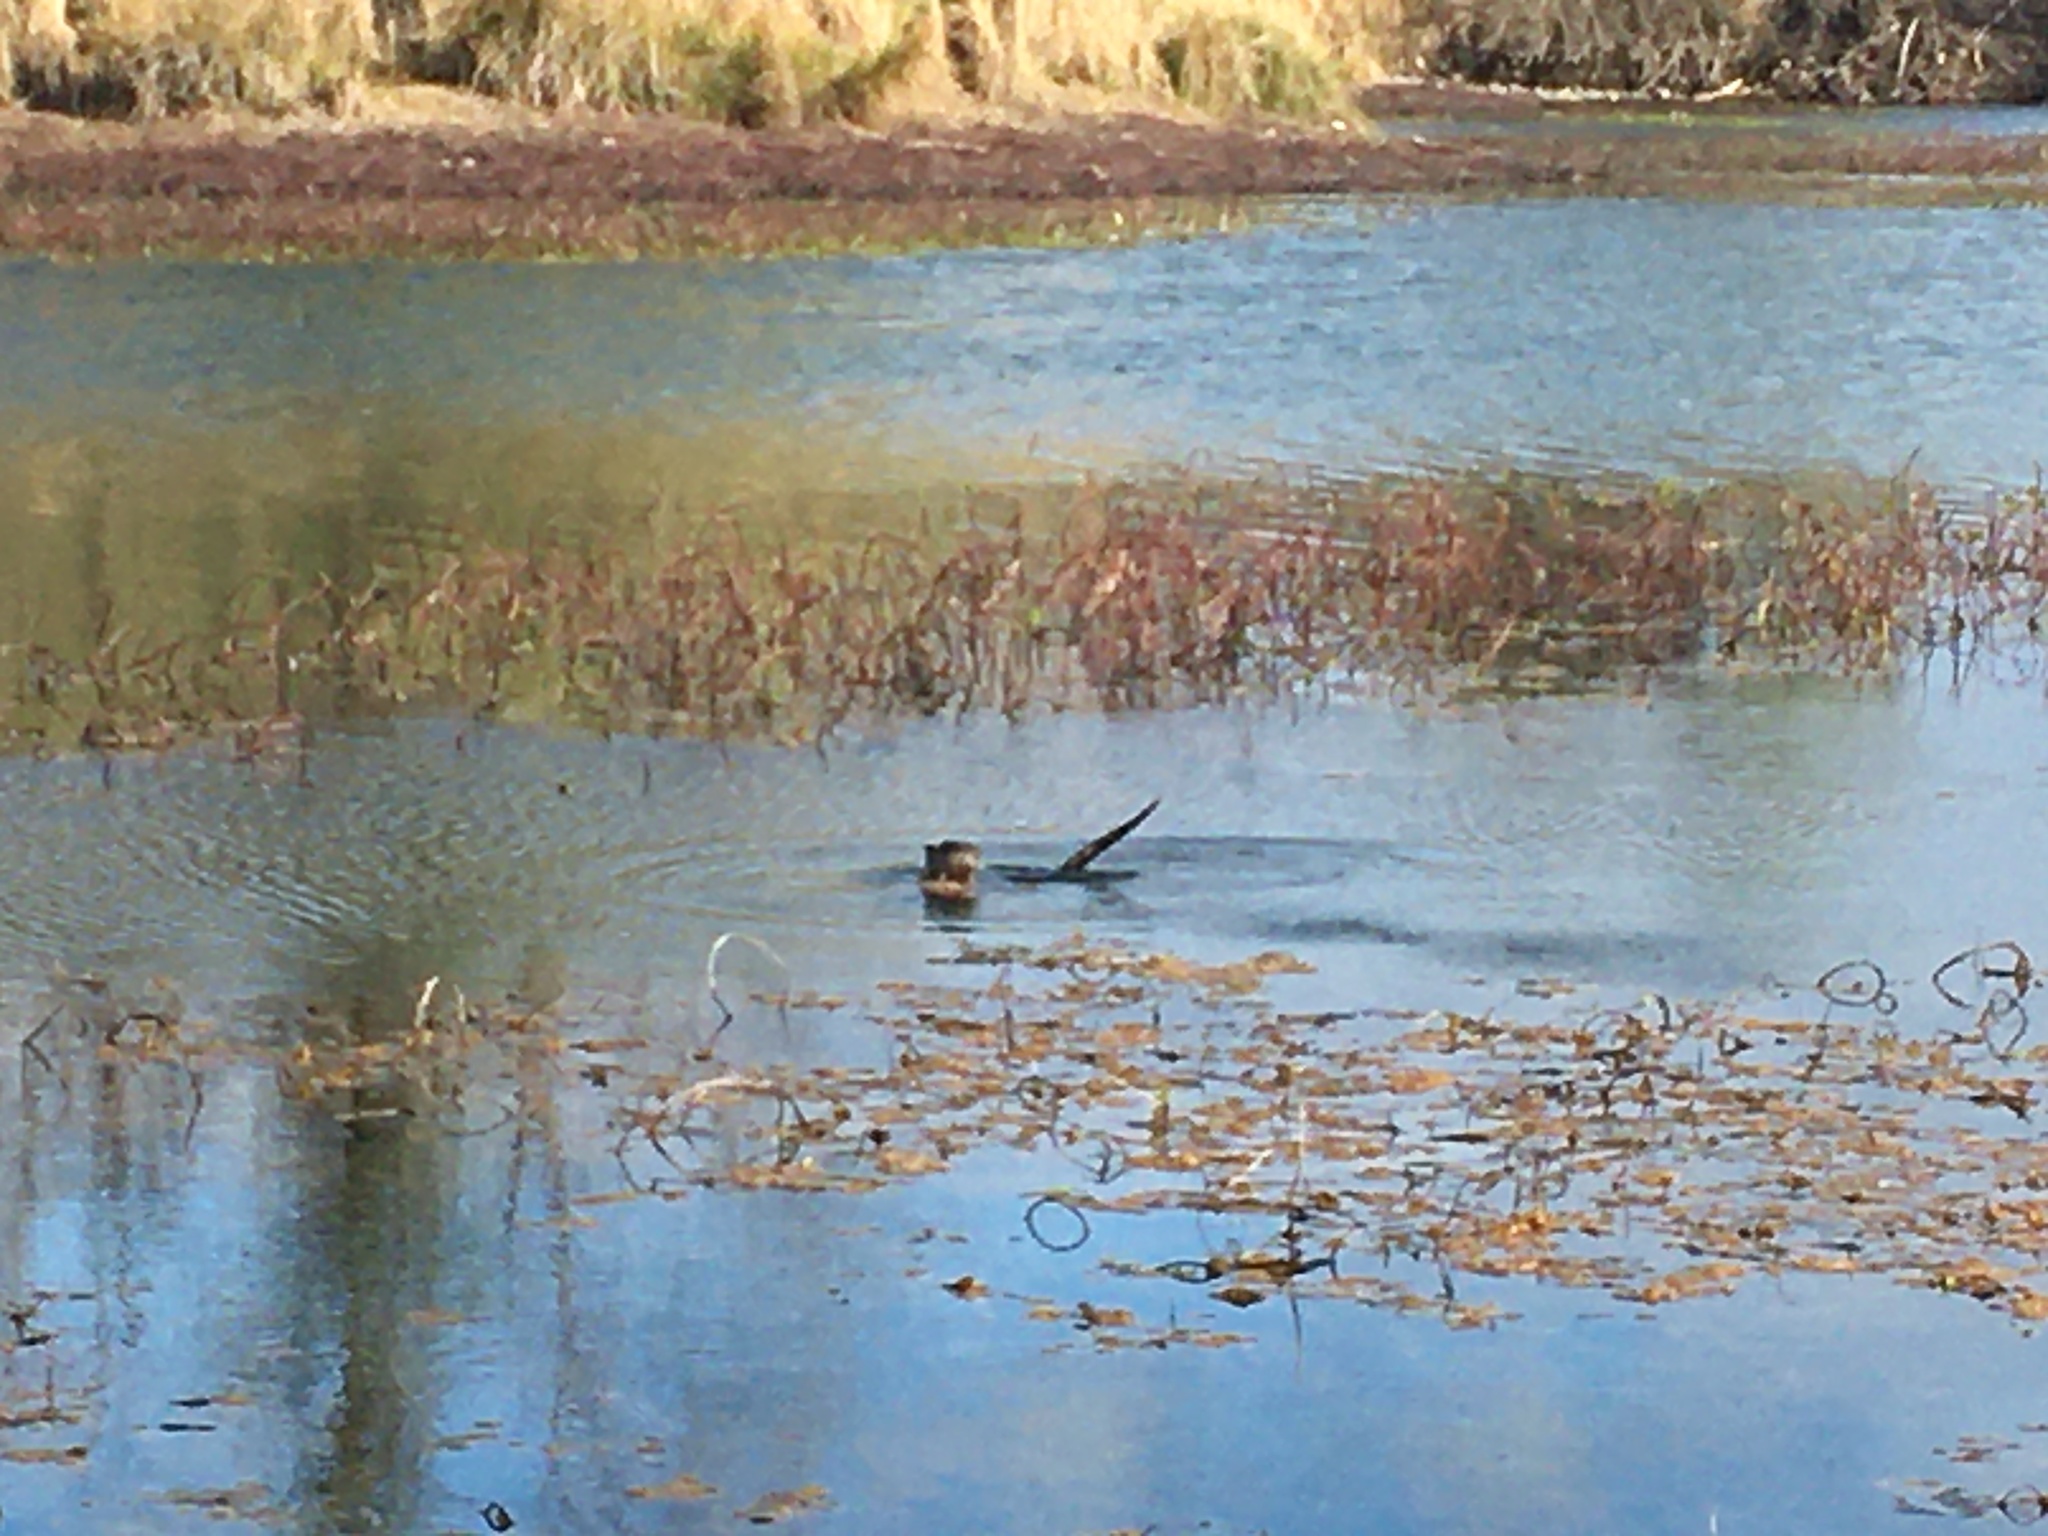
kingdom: Animalia
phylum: Chordata
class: Mammalia
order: Carnivora
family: Mustelidae
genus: Lontra
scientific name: Lontra canadensis
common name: North american river otter
